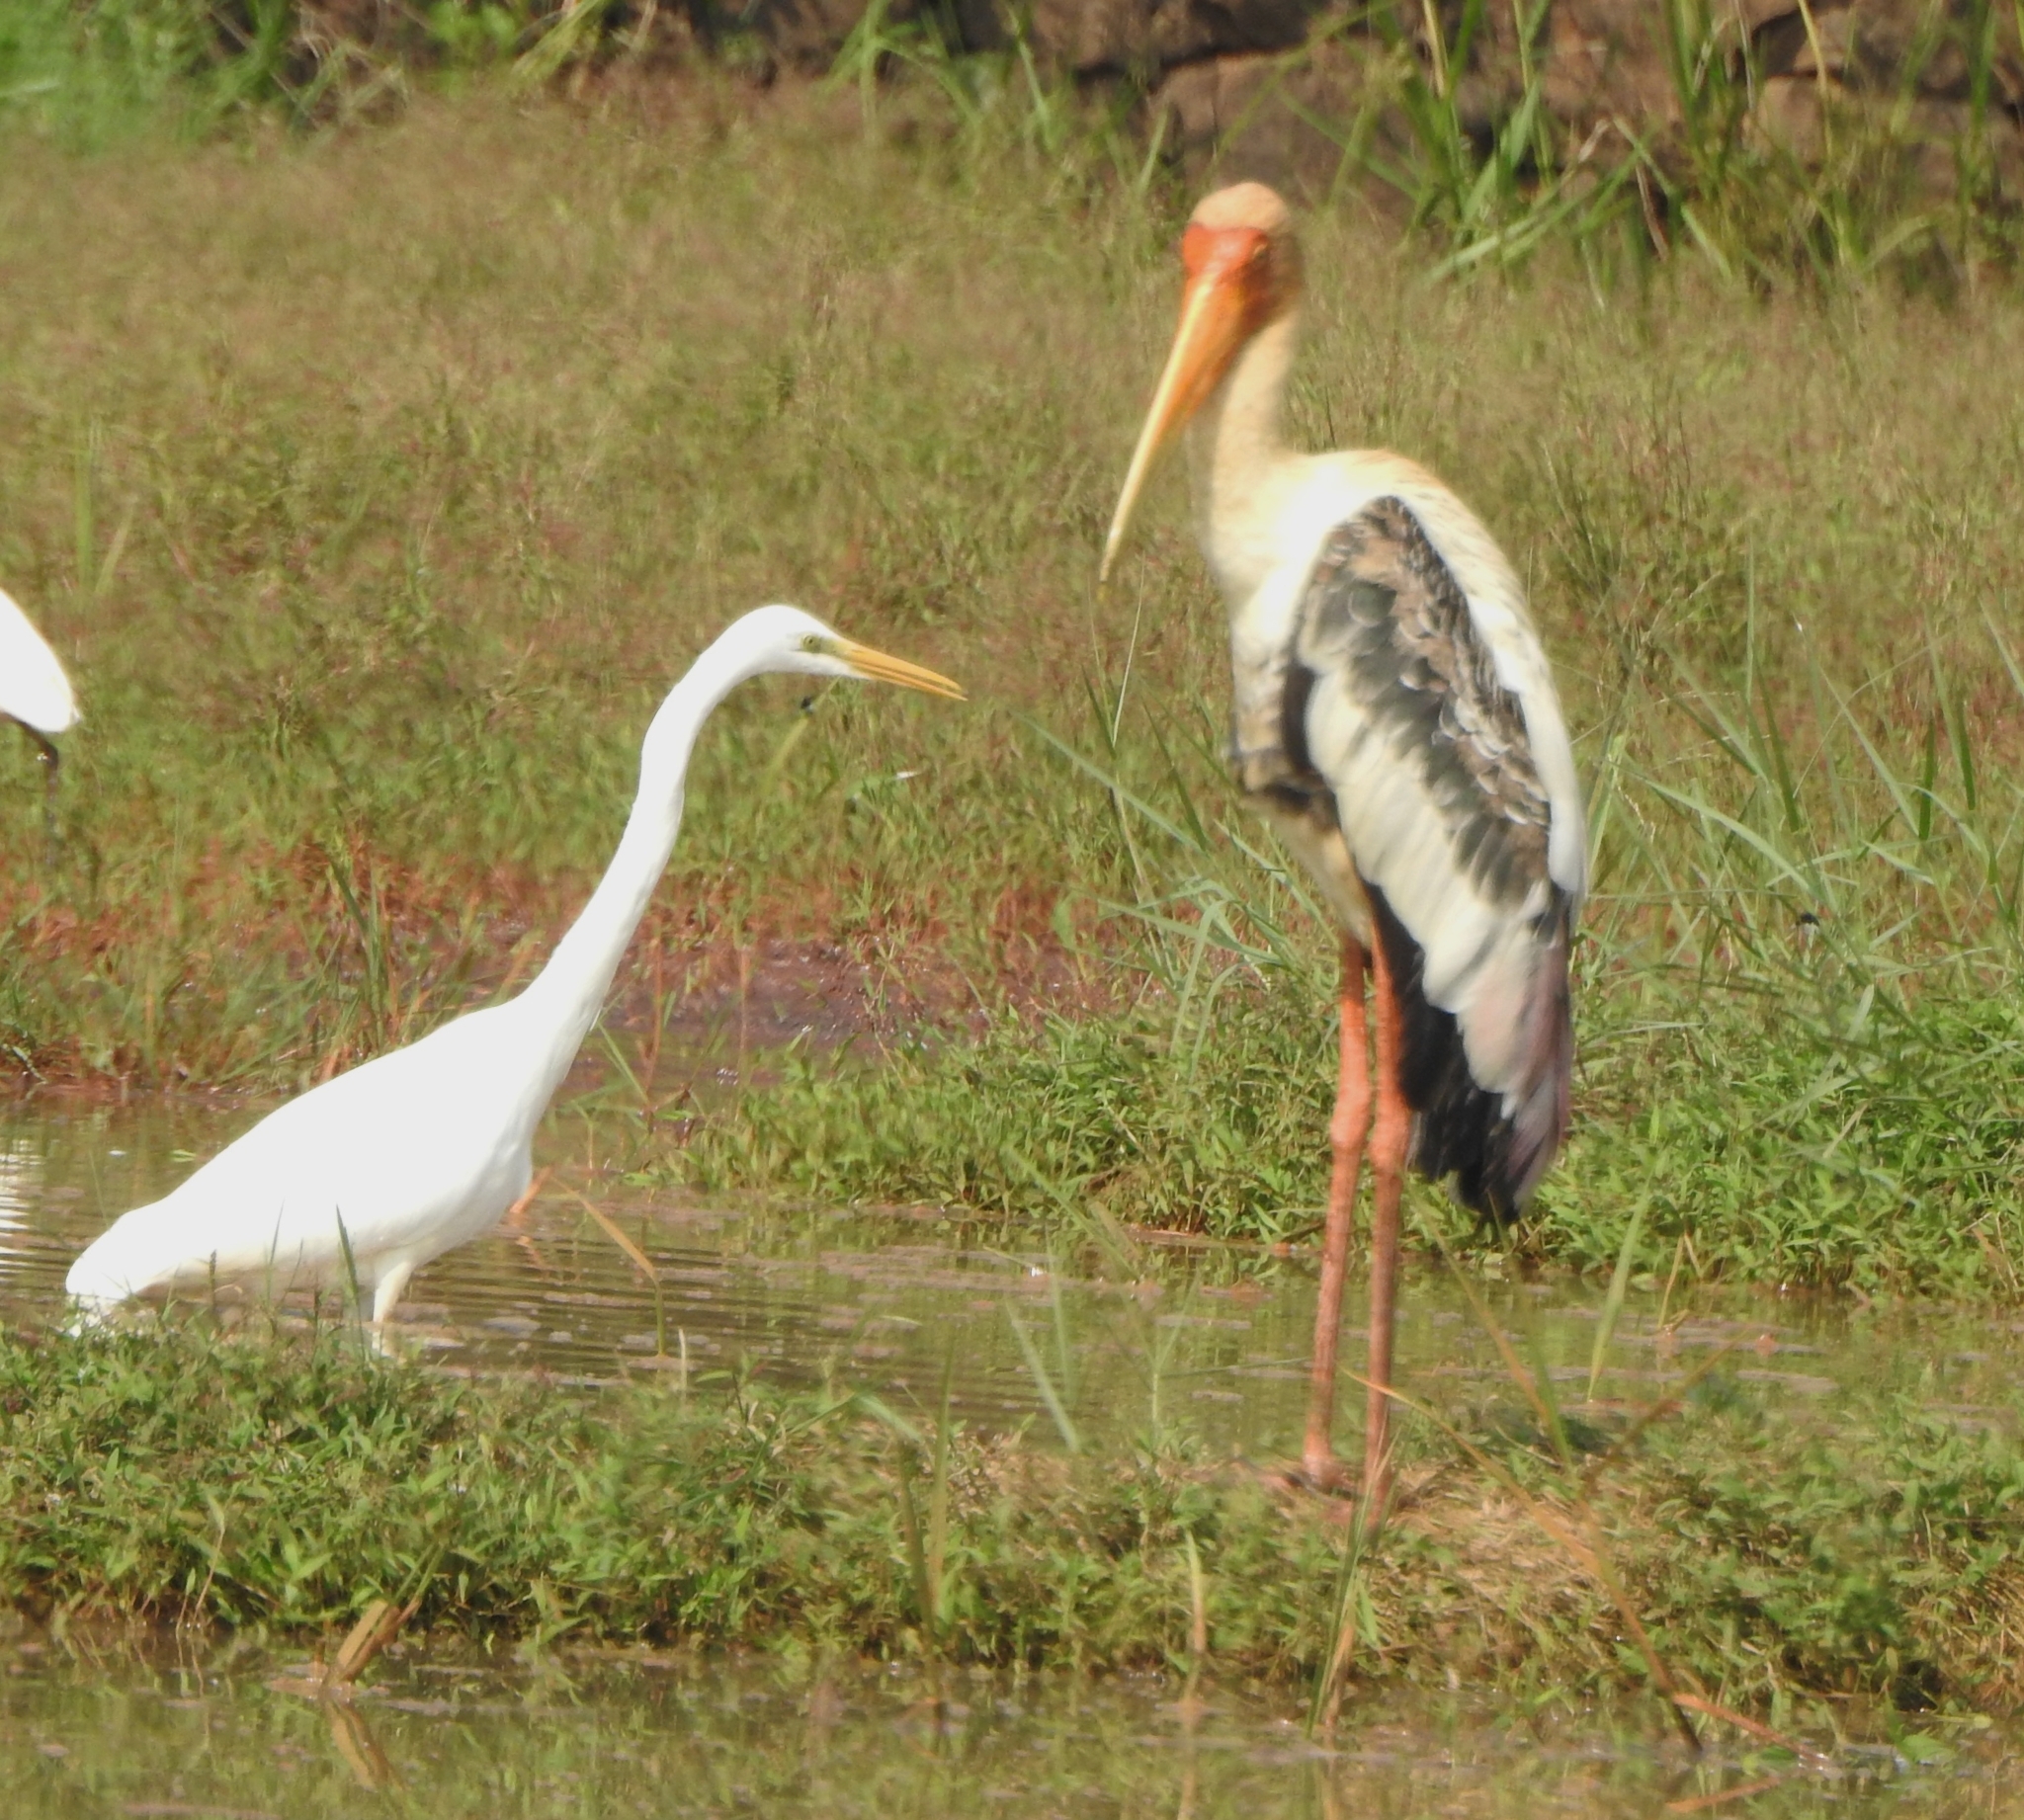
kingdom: Animalia
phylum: Chordata
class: Aves
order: Pelecaniformes
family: Ardeidae
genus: Ardea
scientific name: Ardea alba
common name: Great egret
